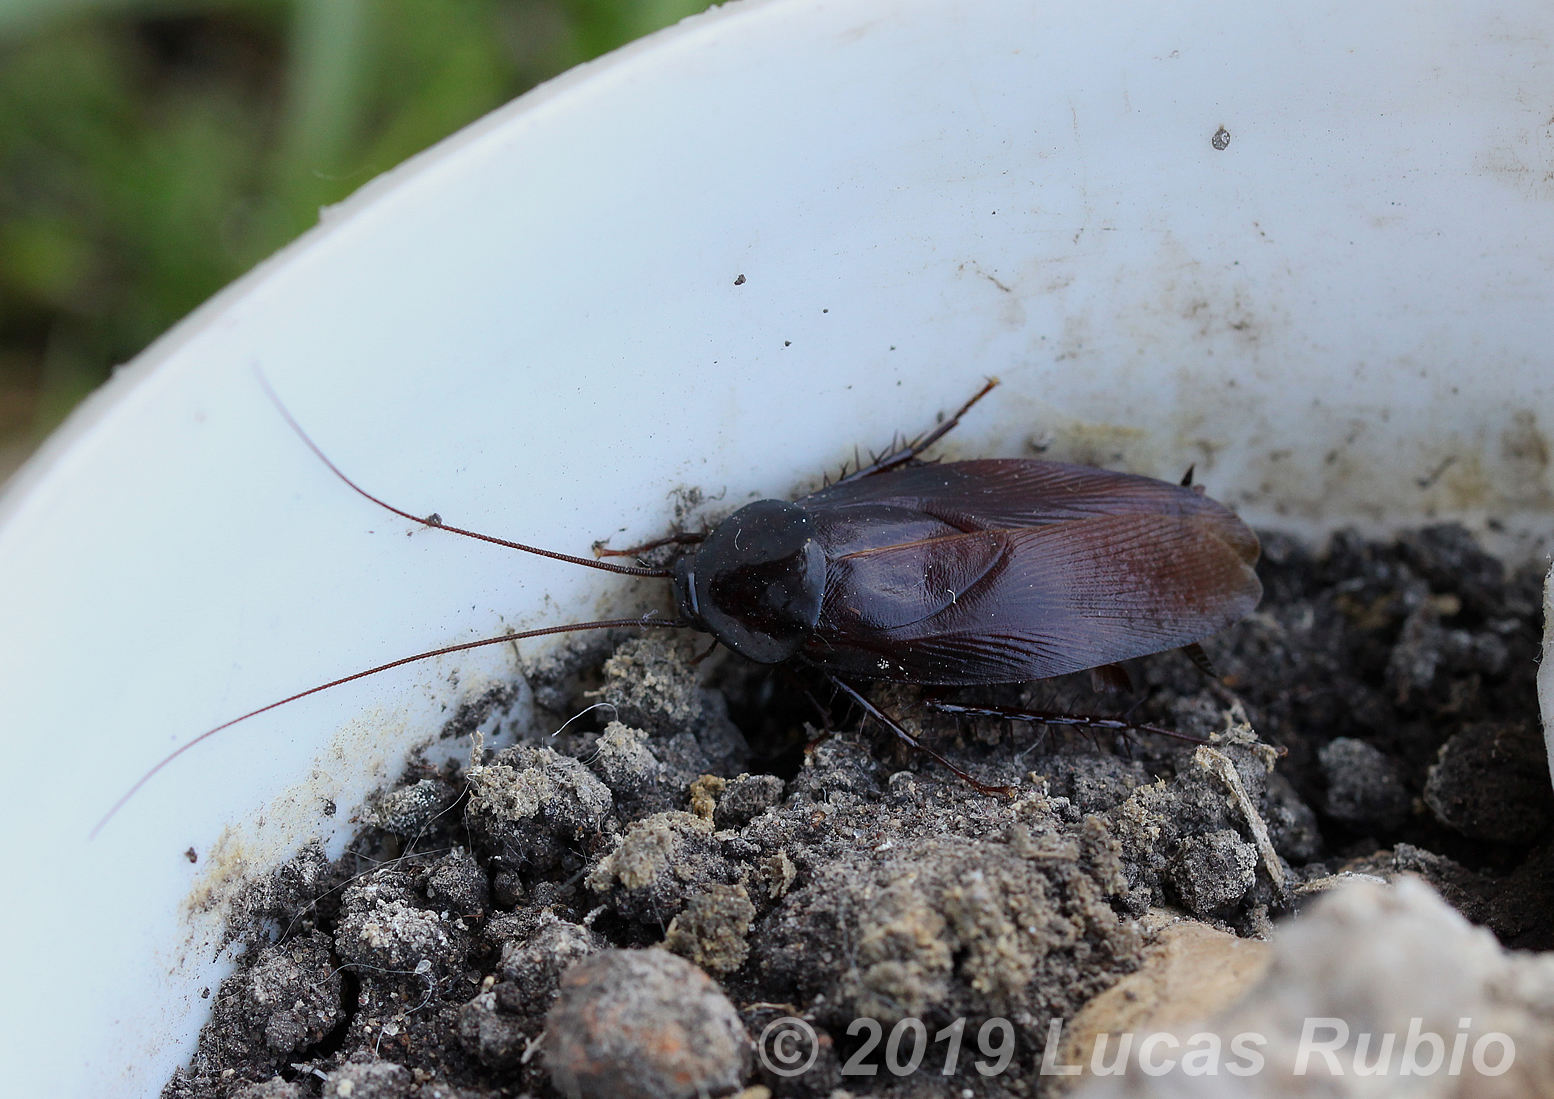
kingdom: Animalia
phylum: Arthropoda
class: Insecta
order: Blattodea
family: Blattidae
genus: Periplaneta
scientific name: Periplaneta fuliginosa
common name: Smokeybrown cockroad
